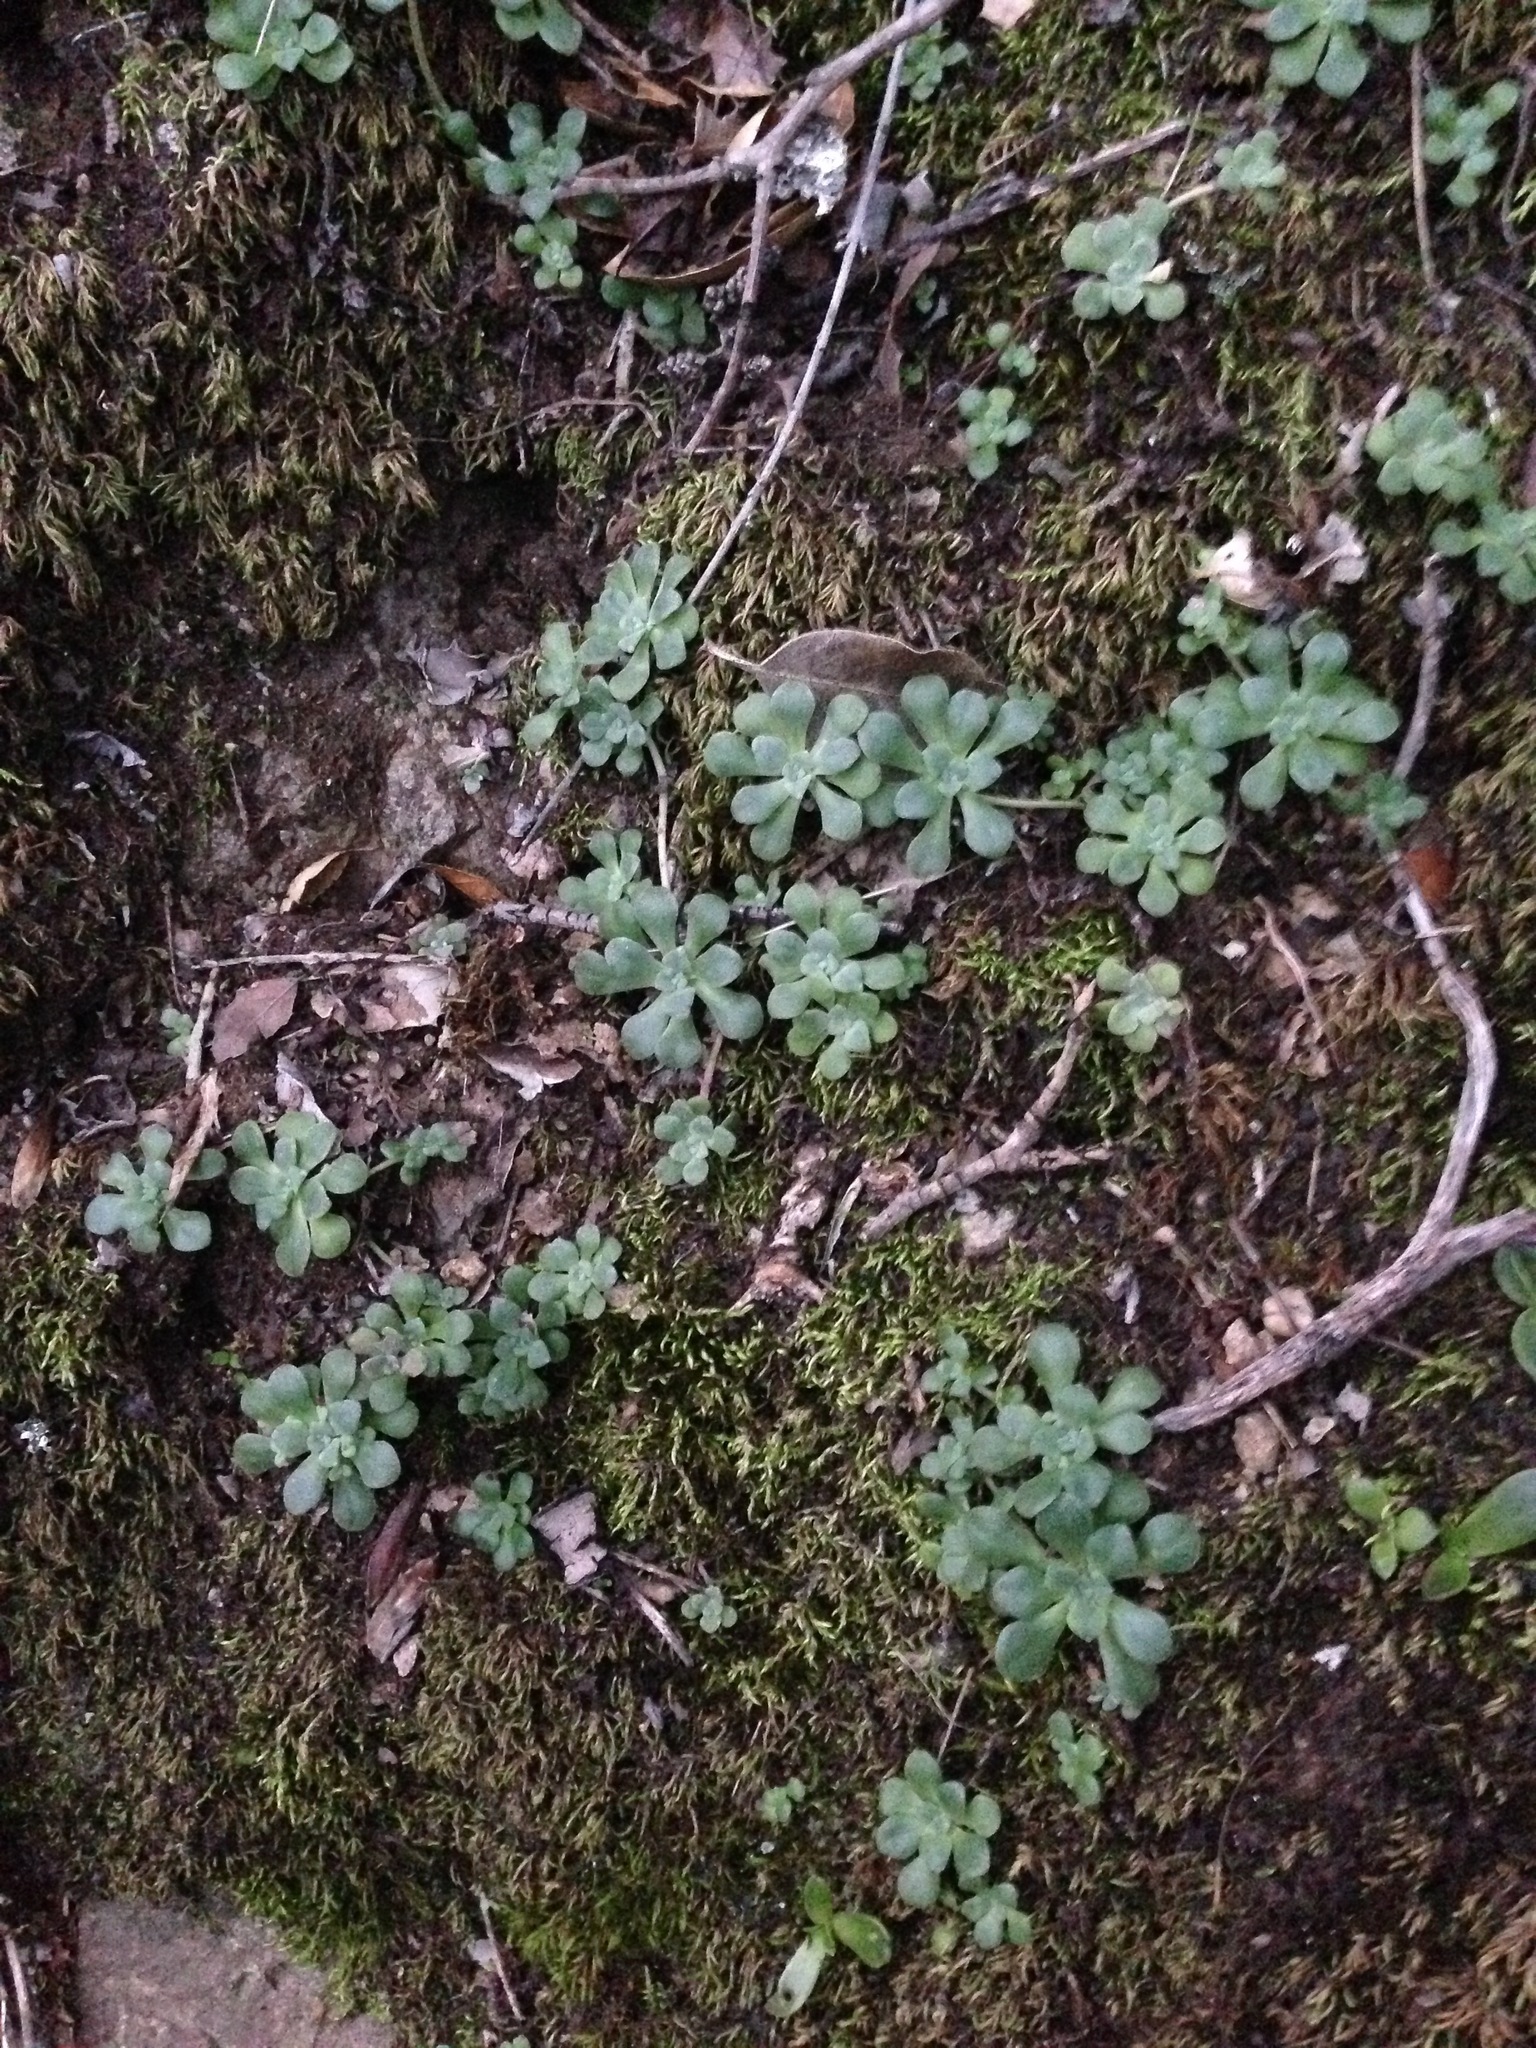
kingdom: Plantae
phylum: Tracheophyta
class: Magnoliopsida
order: Saxifragales
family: Crassulaceae
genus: Sedum
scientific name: Sedum spathulifolium
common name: Colorado stonecrop
